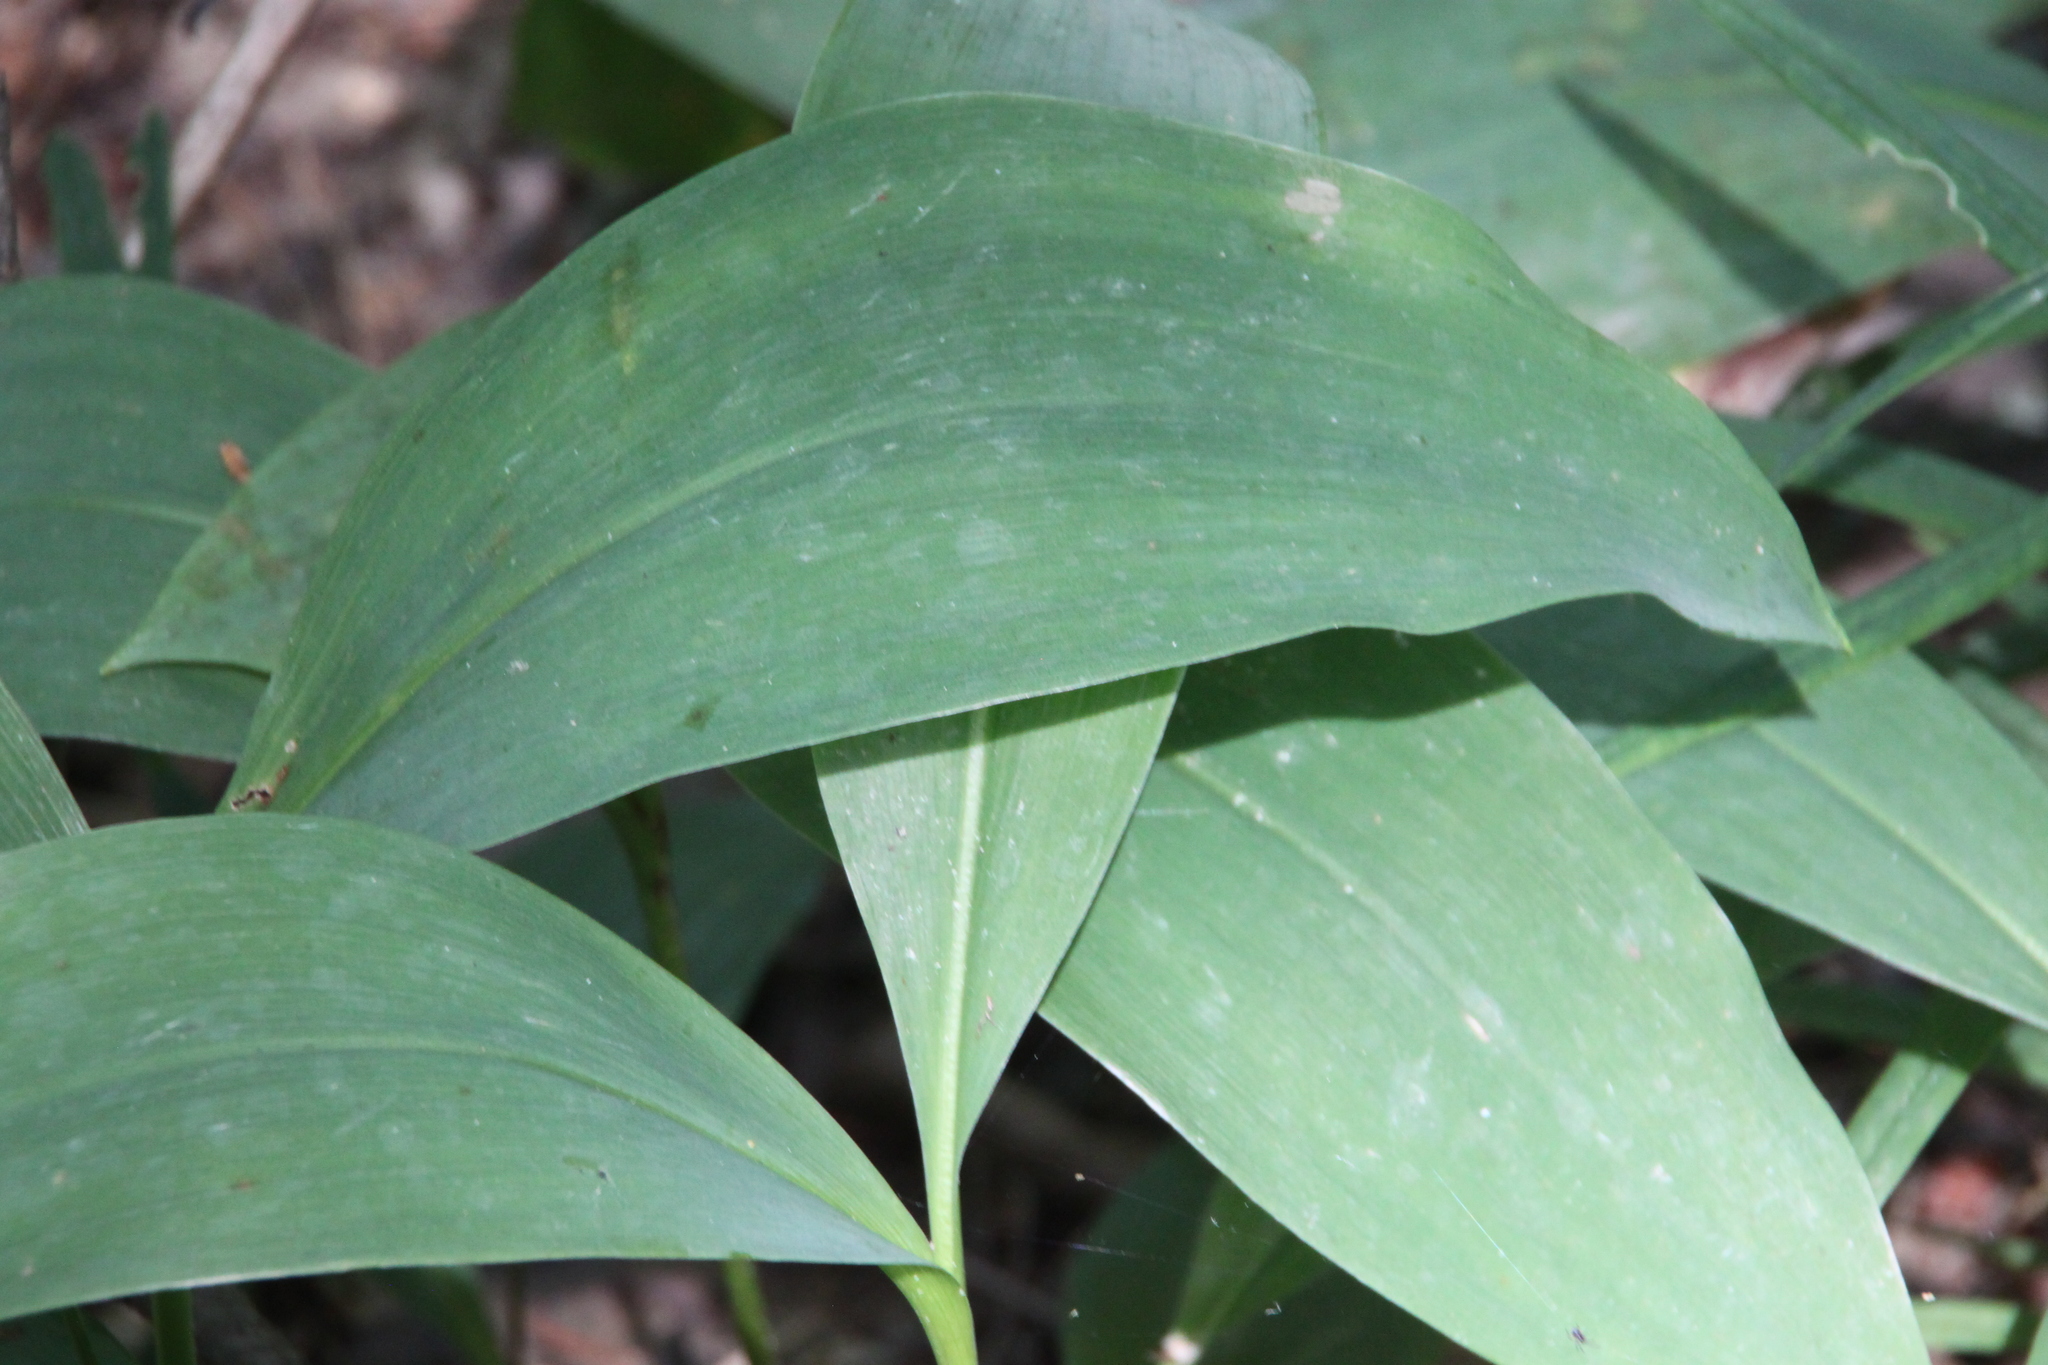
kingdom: Plantae
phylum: Tracheophyta
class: Liliopsida
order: Asparagales
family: Asparagaceae
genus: Convallaria
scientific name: Convallaria majalis
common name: Lily-of-the-valley
